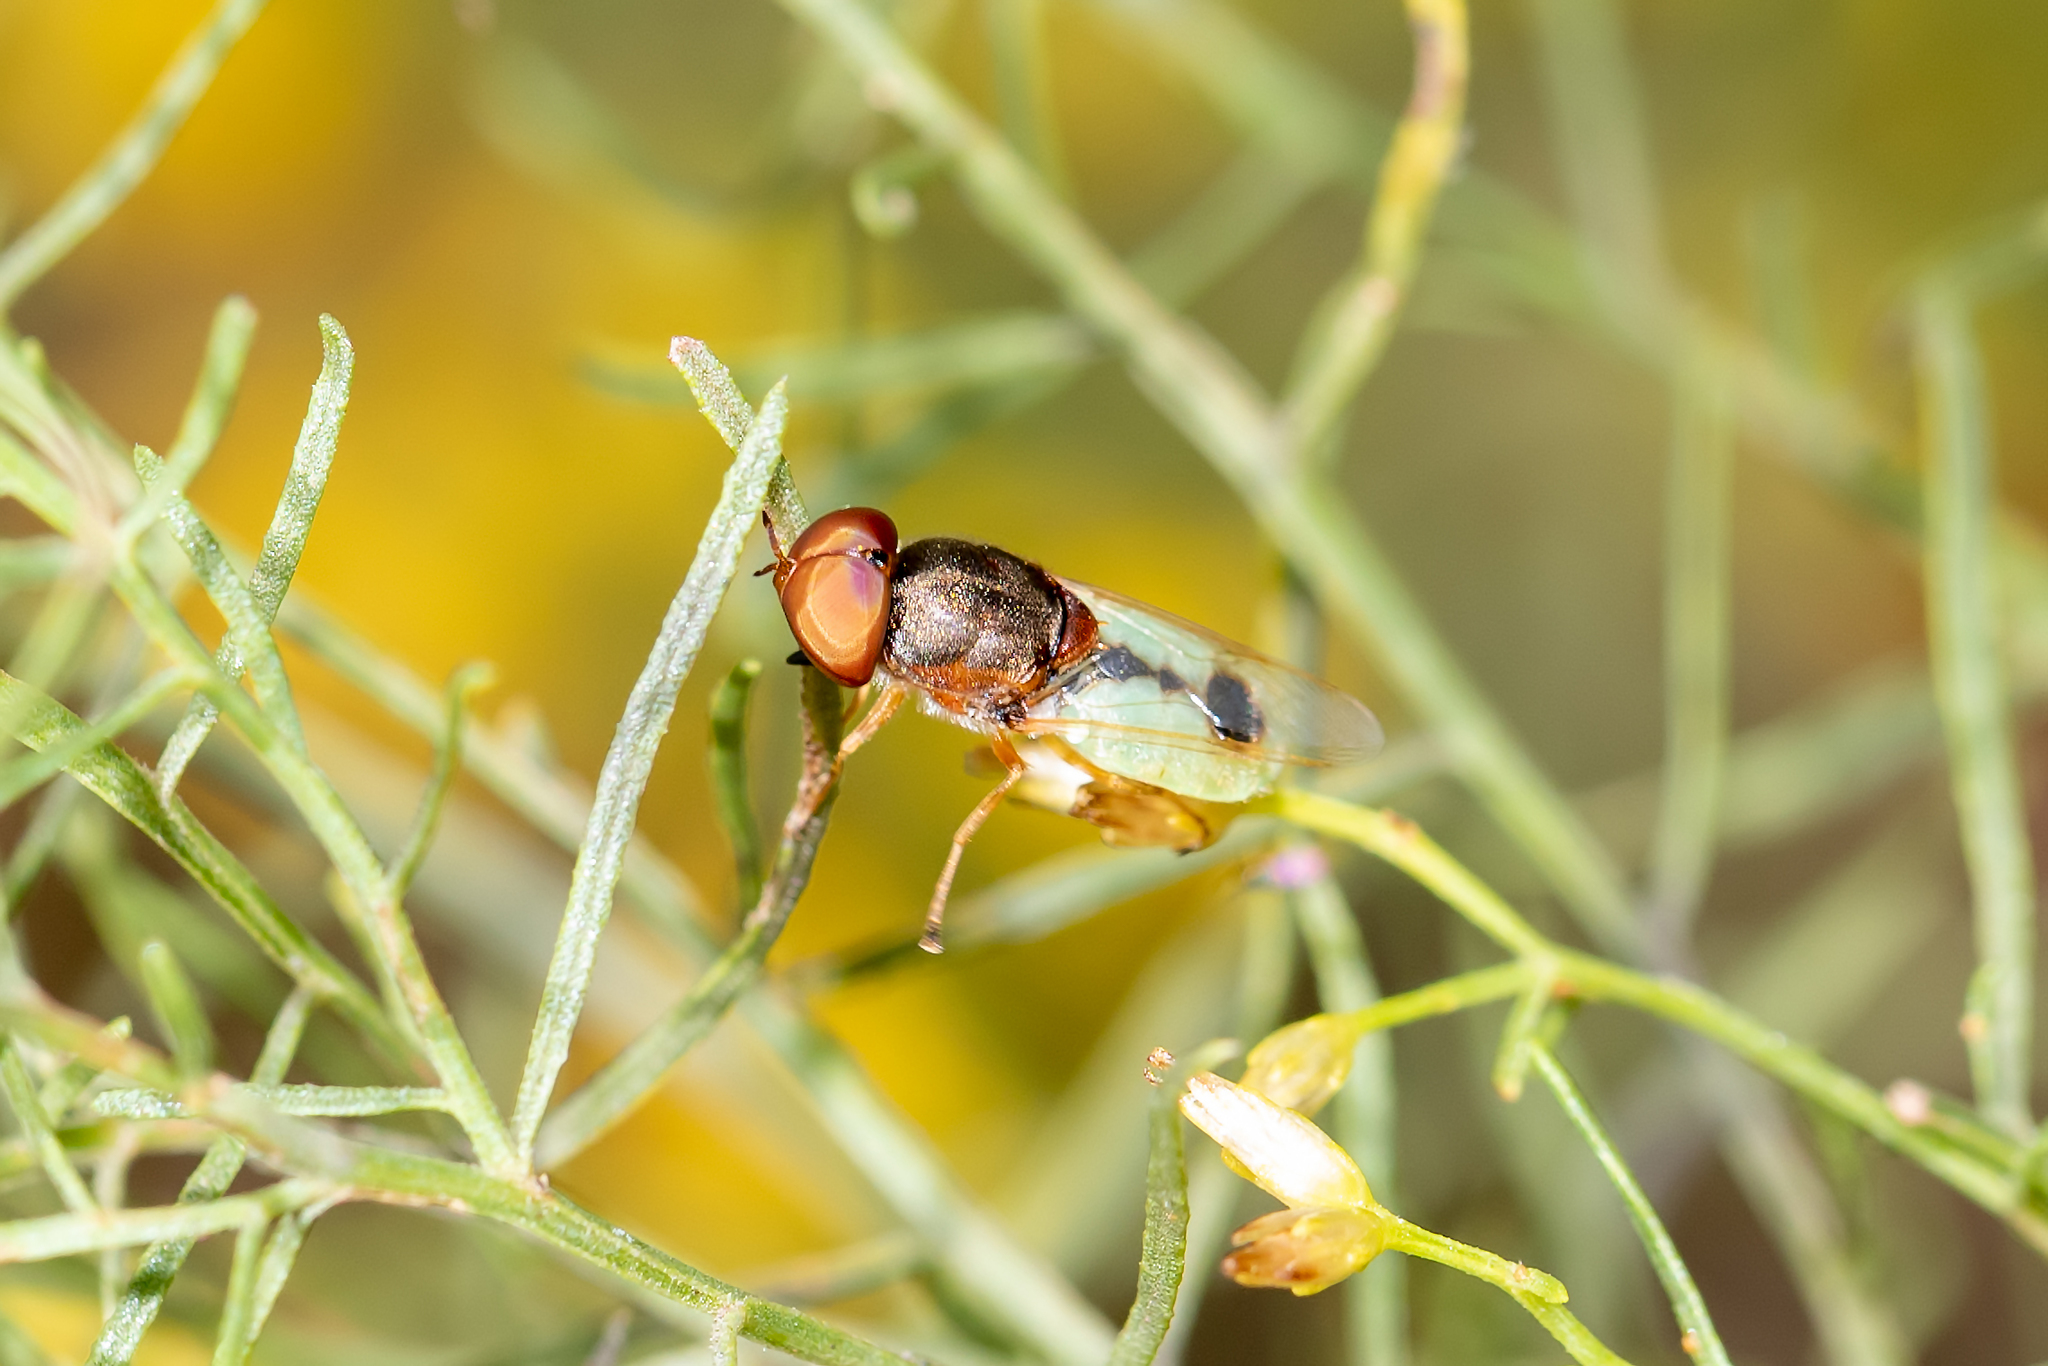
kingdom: Animalia
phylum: Arthropoda
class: Insecta
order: Diptera
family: Stratiomyidae
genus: Hedriodiscus
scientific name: Hedriodiscus vertebratus
